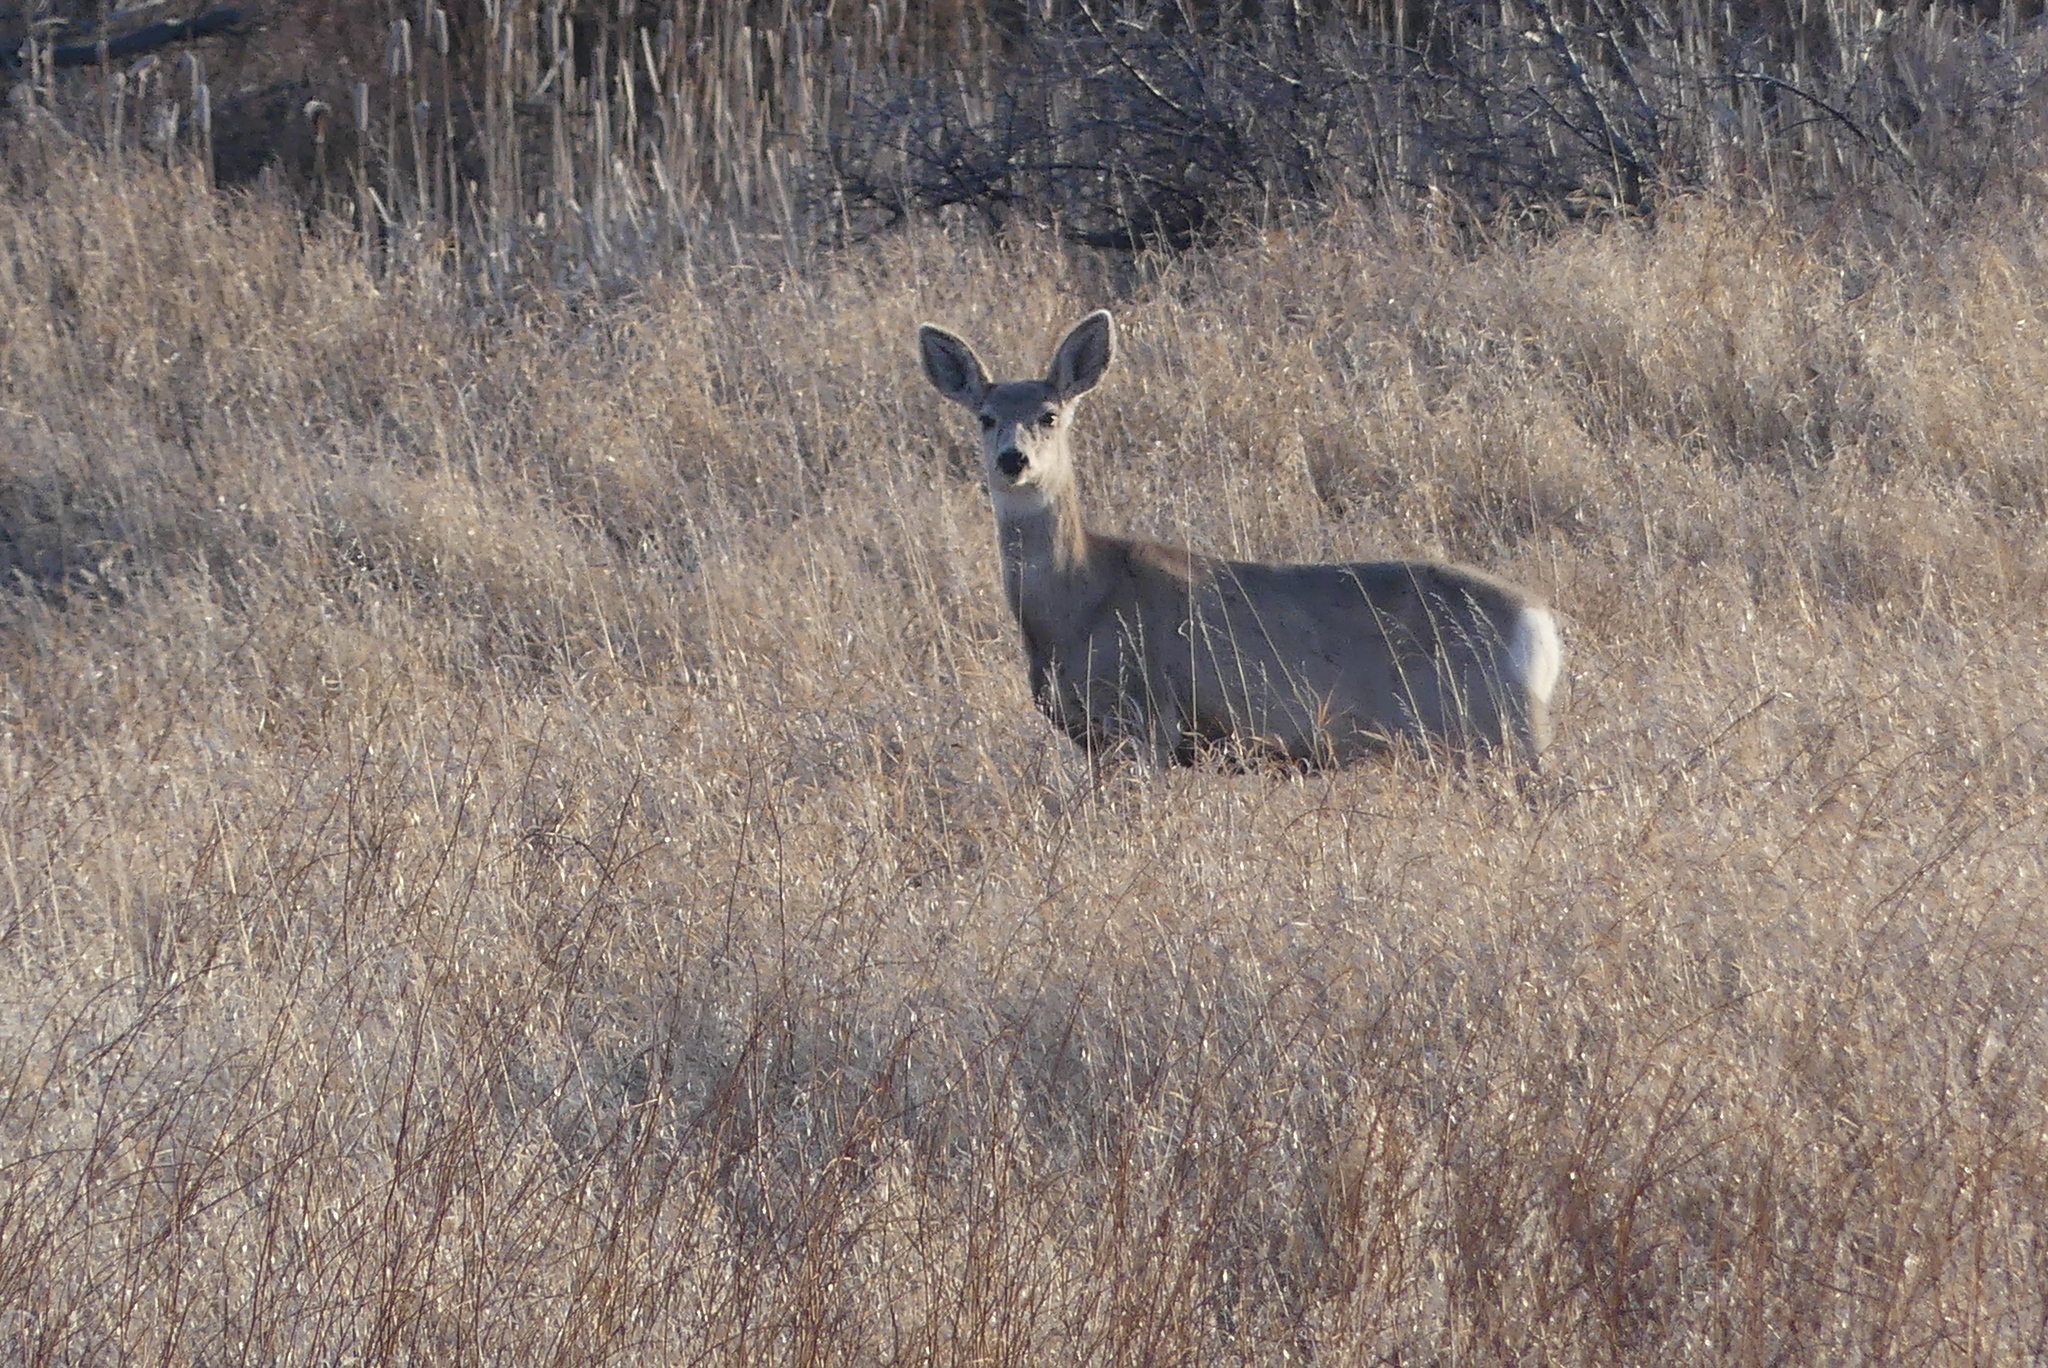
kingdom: Animalia
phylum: Chordata
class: Mammalia
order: Artiodactyla
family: Cervidae
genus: Odocoileus
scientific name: Odocoileus hemionus
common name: Mule deer
